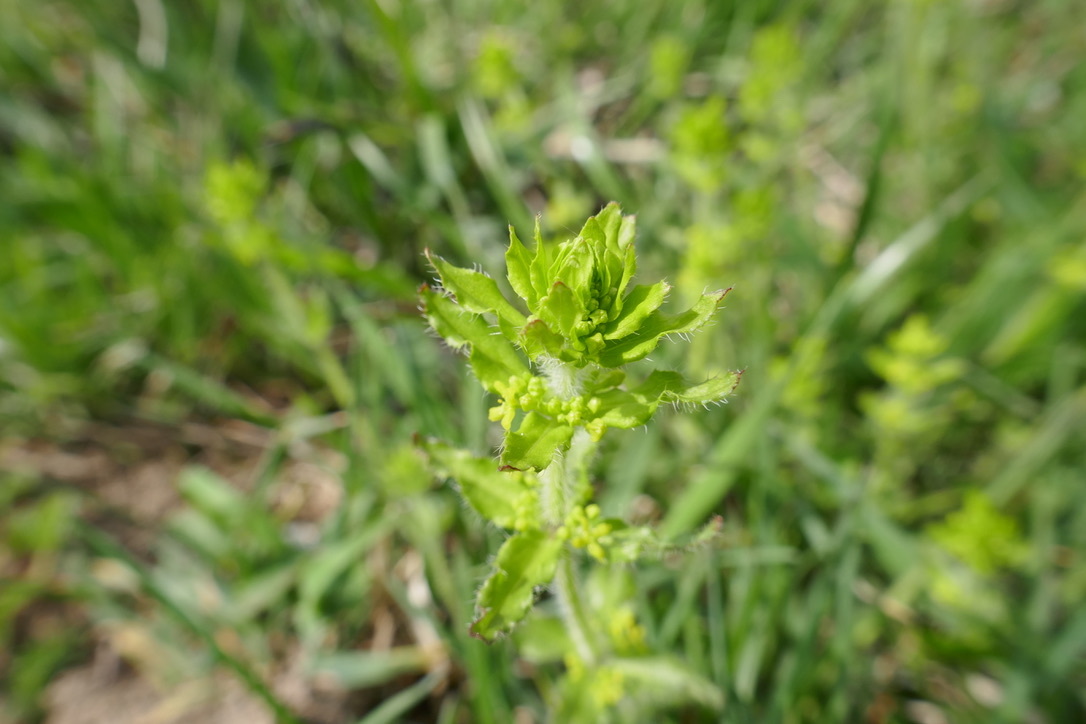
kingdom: Plantae
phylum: Tracheophyta
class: Magnoliopsida
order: Gentianales
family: Rubiaceae
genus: Cruciata
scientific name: Cruciata laevipes
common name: Crosswort
